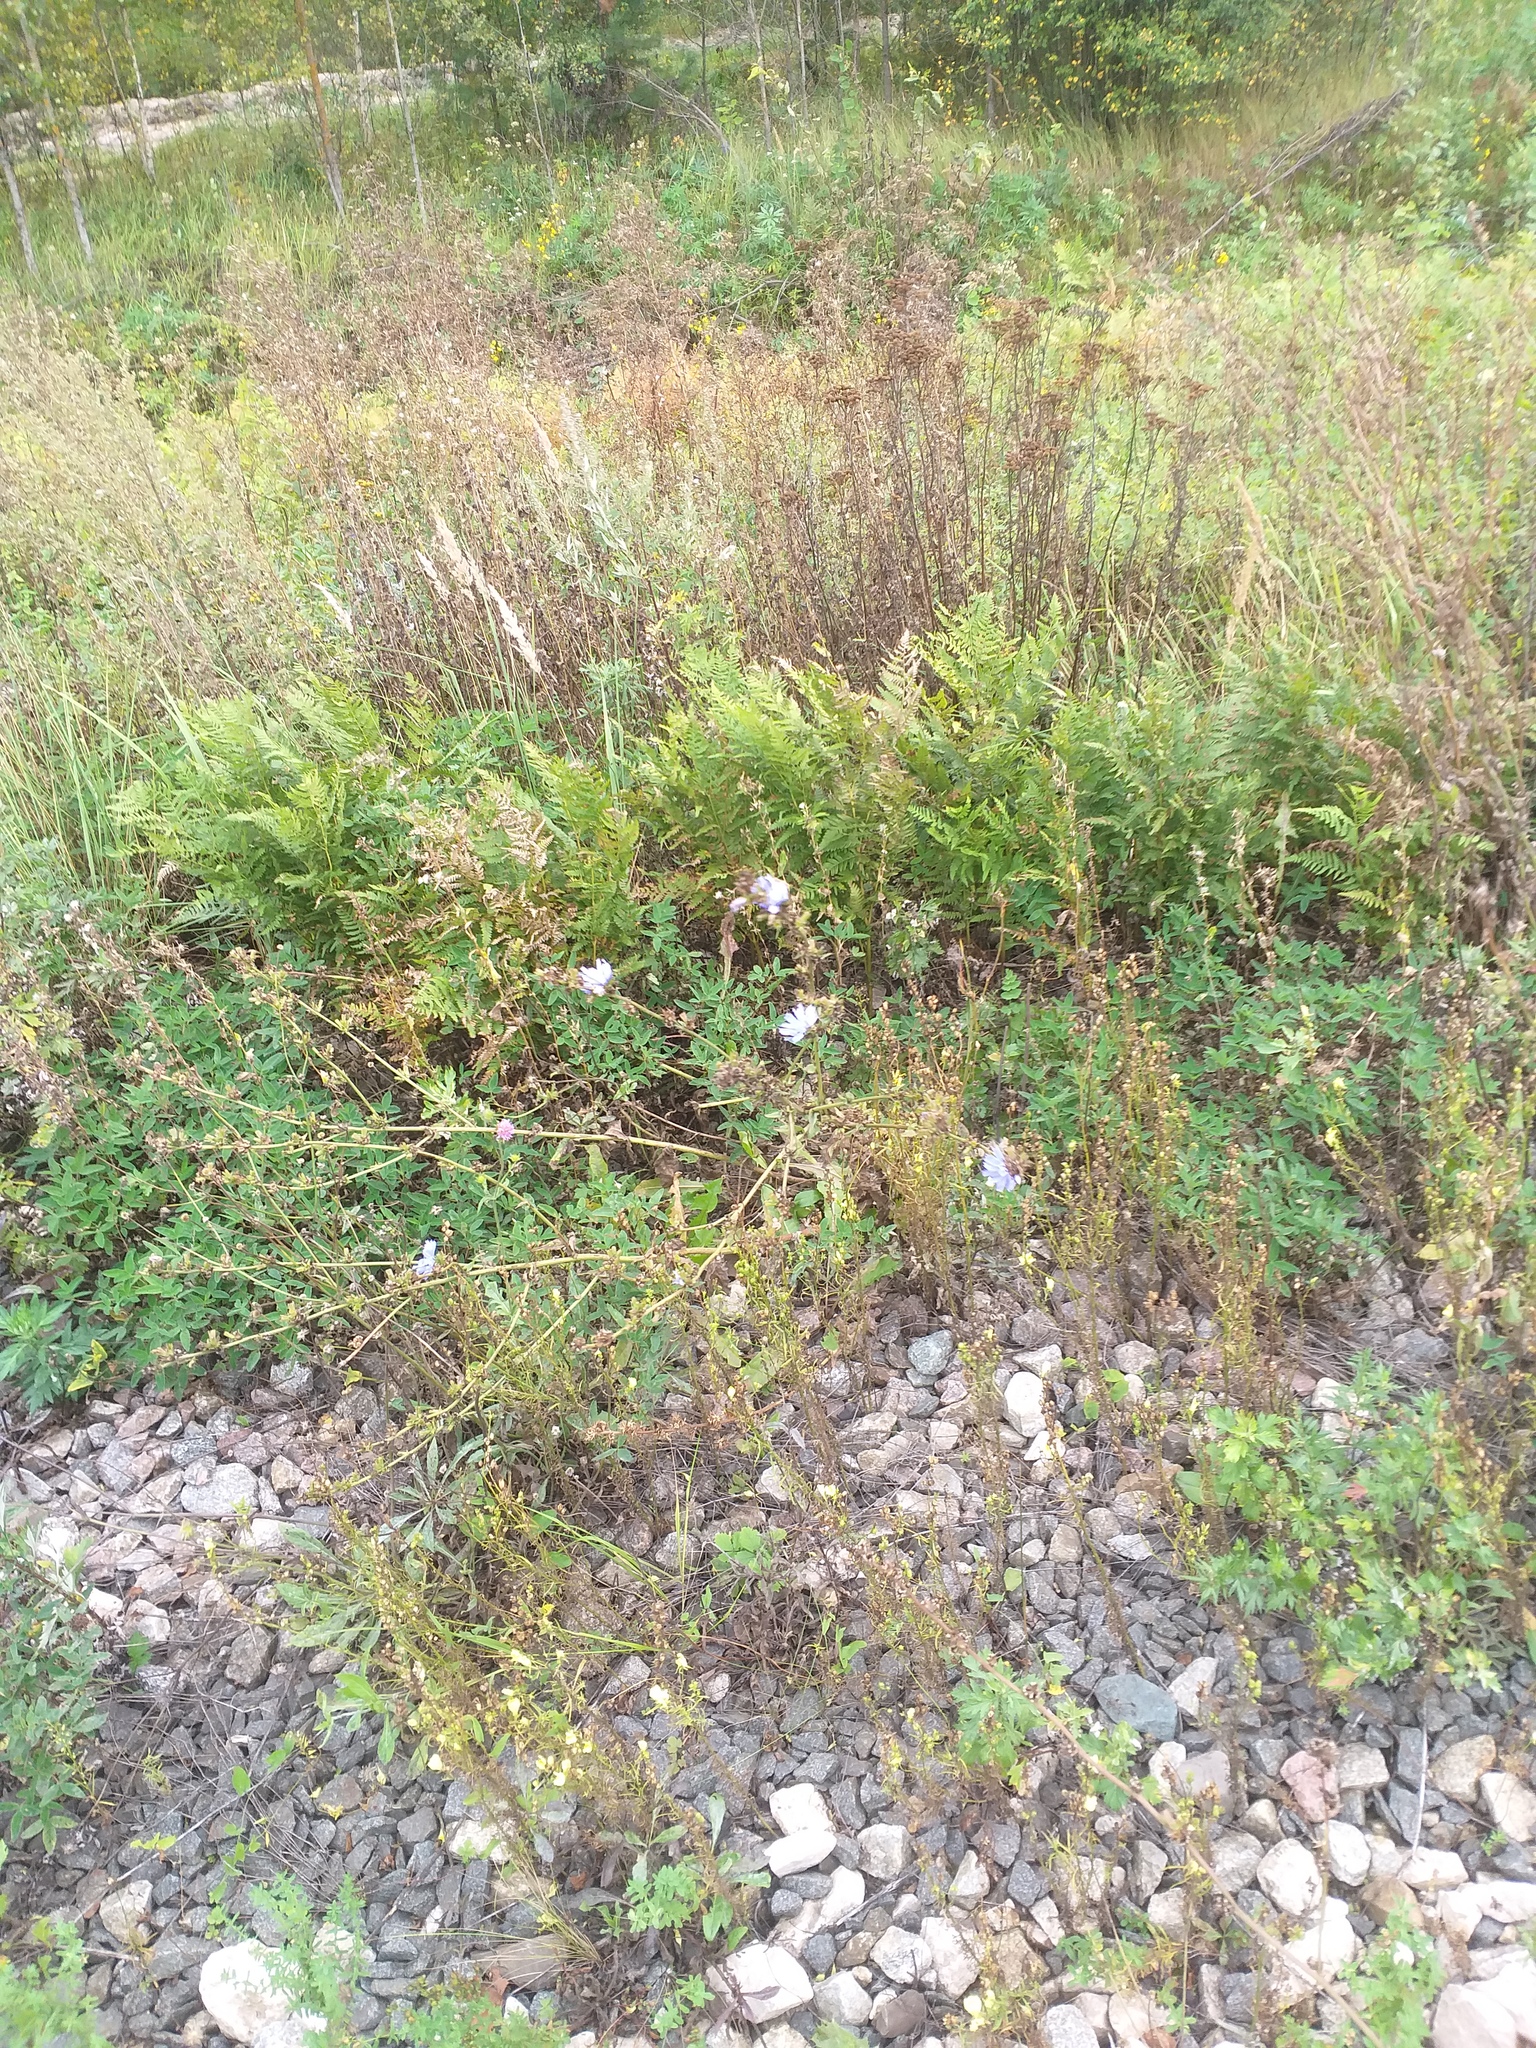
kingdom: Plantae
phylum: Tracheophyta
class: Magnoliopsida
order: Asterales
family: Asteraceae
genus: Cichorium
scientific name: Cichorium intybus
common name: Chicory
